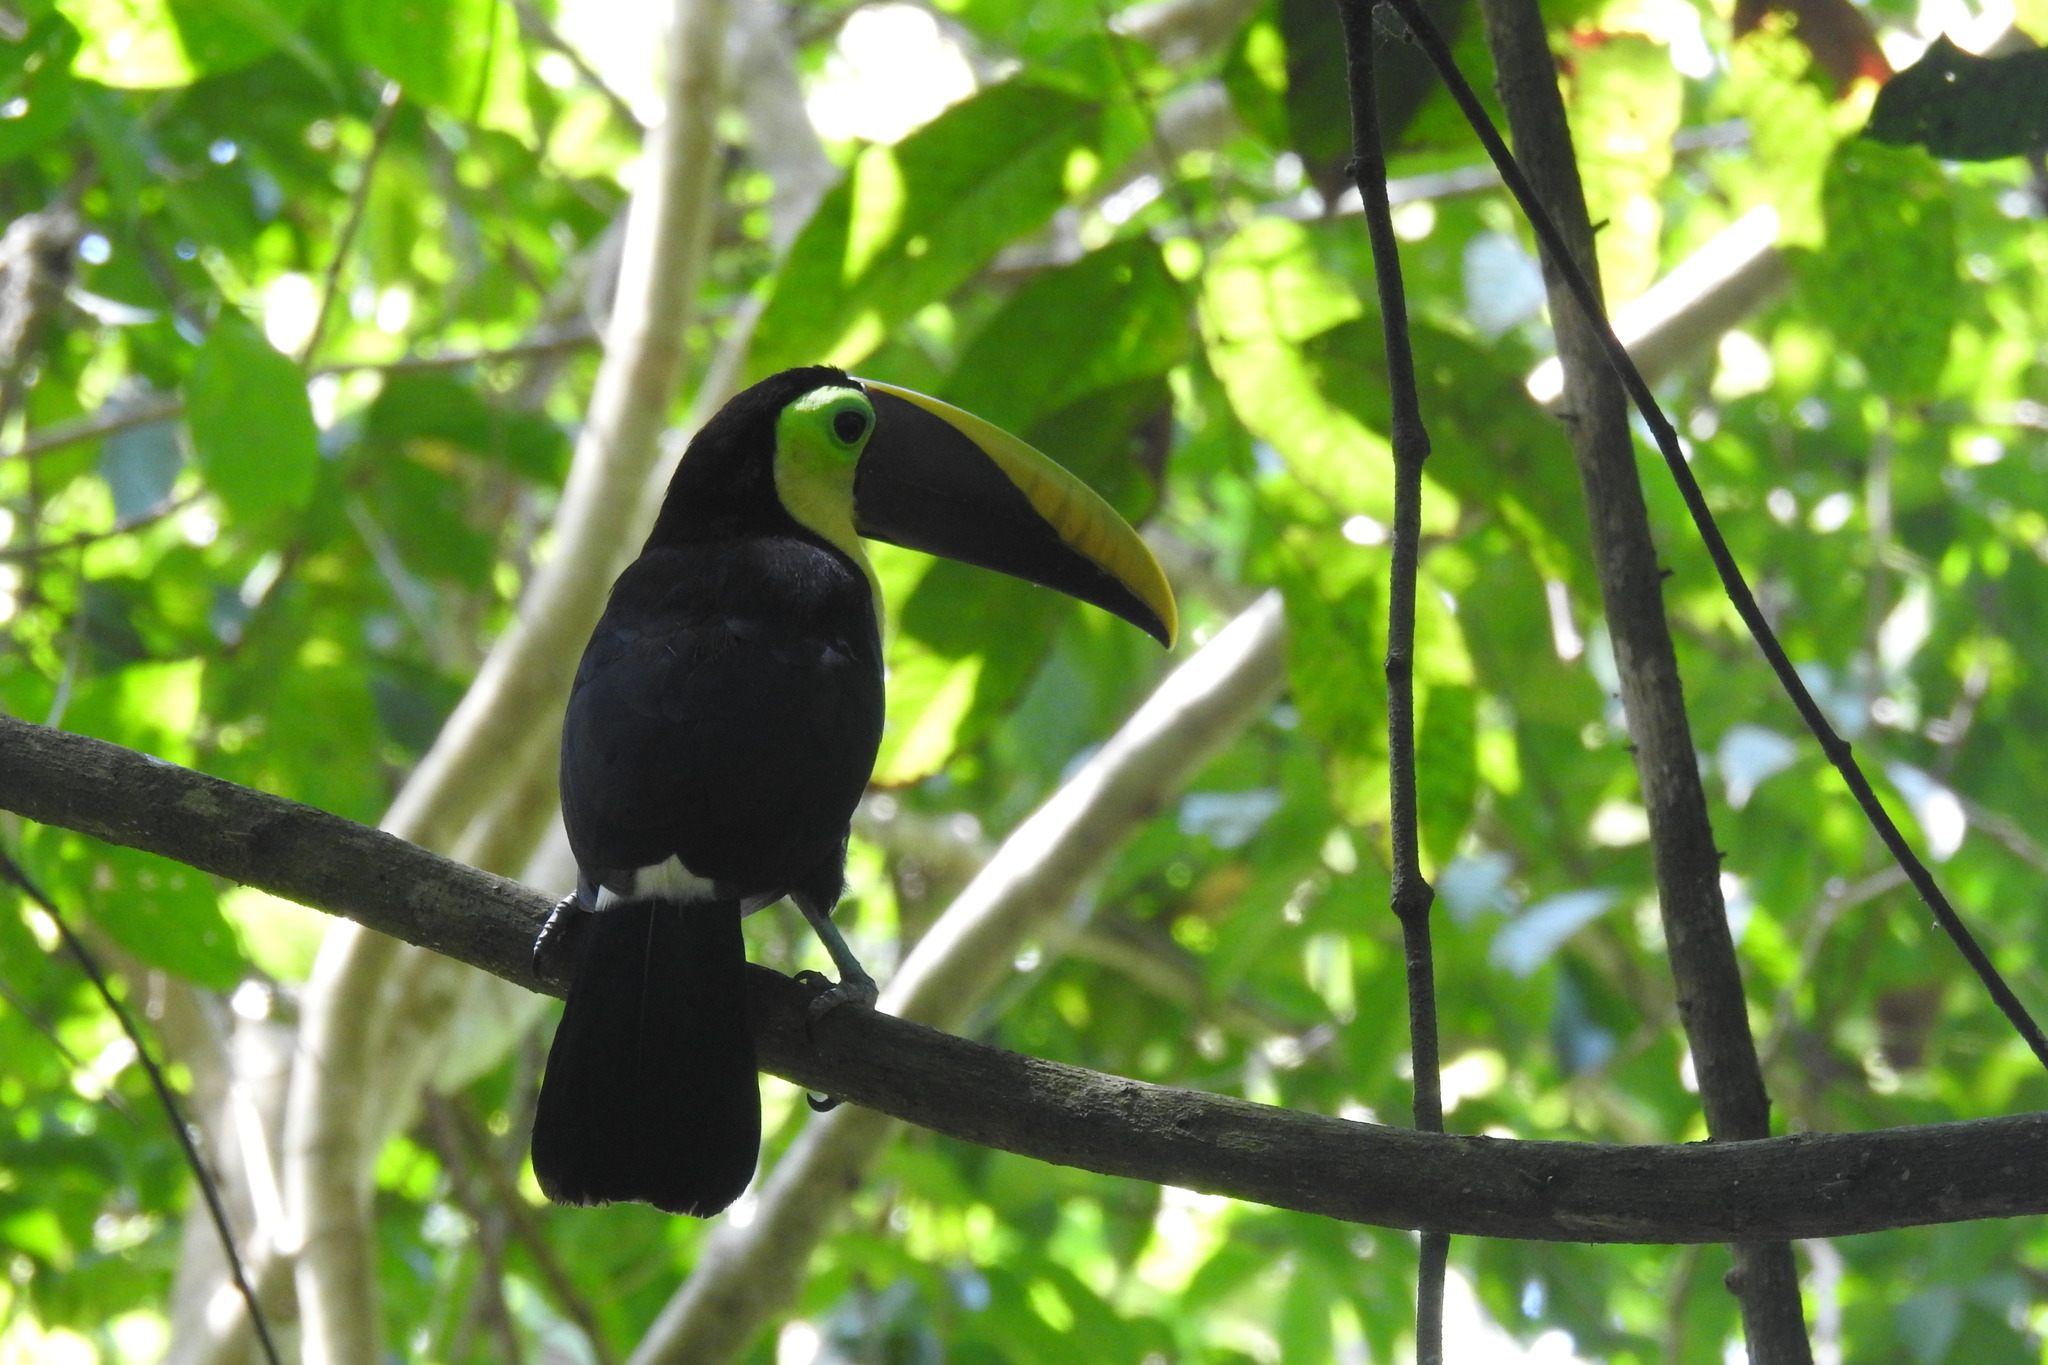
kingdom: Animalia
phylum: Chordata
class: Aves
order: Piciformes
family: Ramphastidae
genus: Ramphastos
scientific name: Ramphastos ambiguus
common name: Yellow-throated toucan
